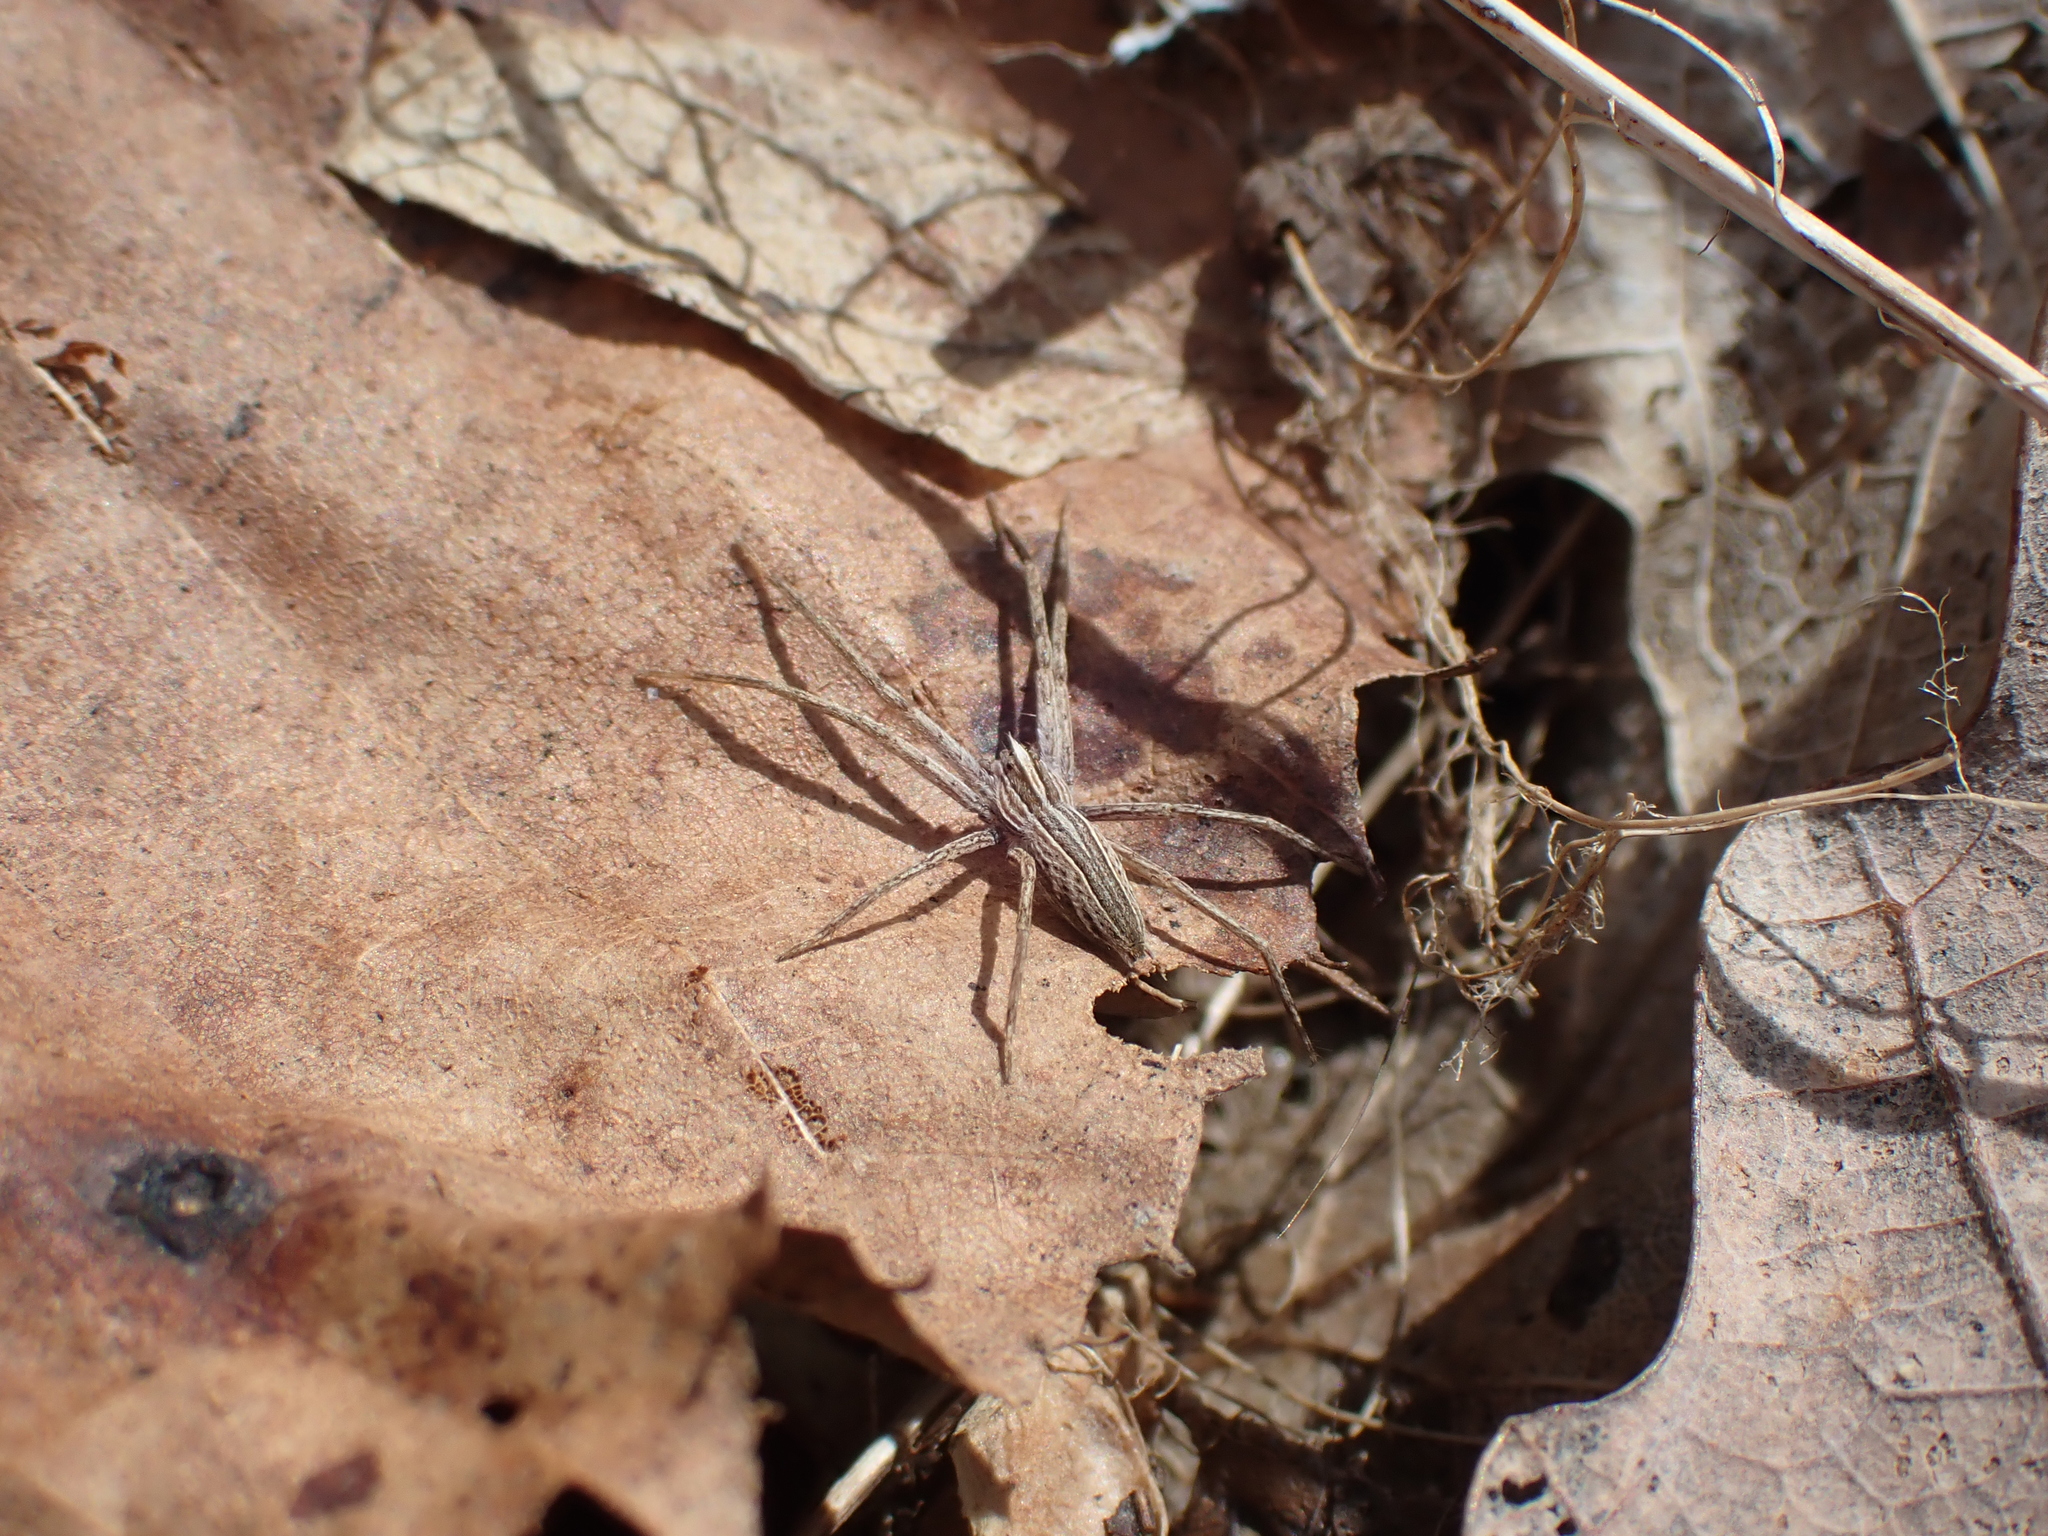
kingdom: Animalia
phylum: Arthropoda
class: Arachnida
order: Araneae
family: Pisauridae
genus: Pisaurina
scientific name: Pisaurina dubia
